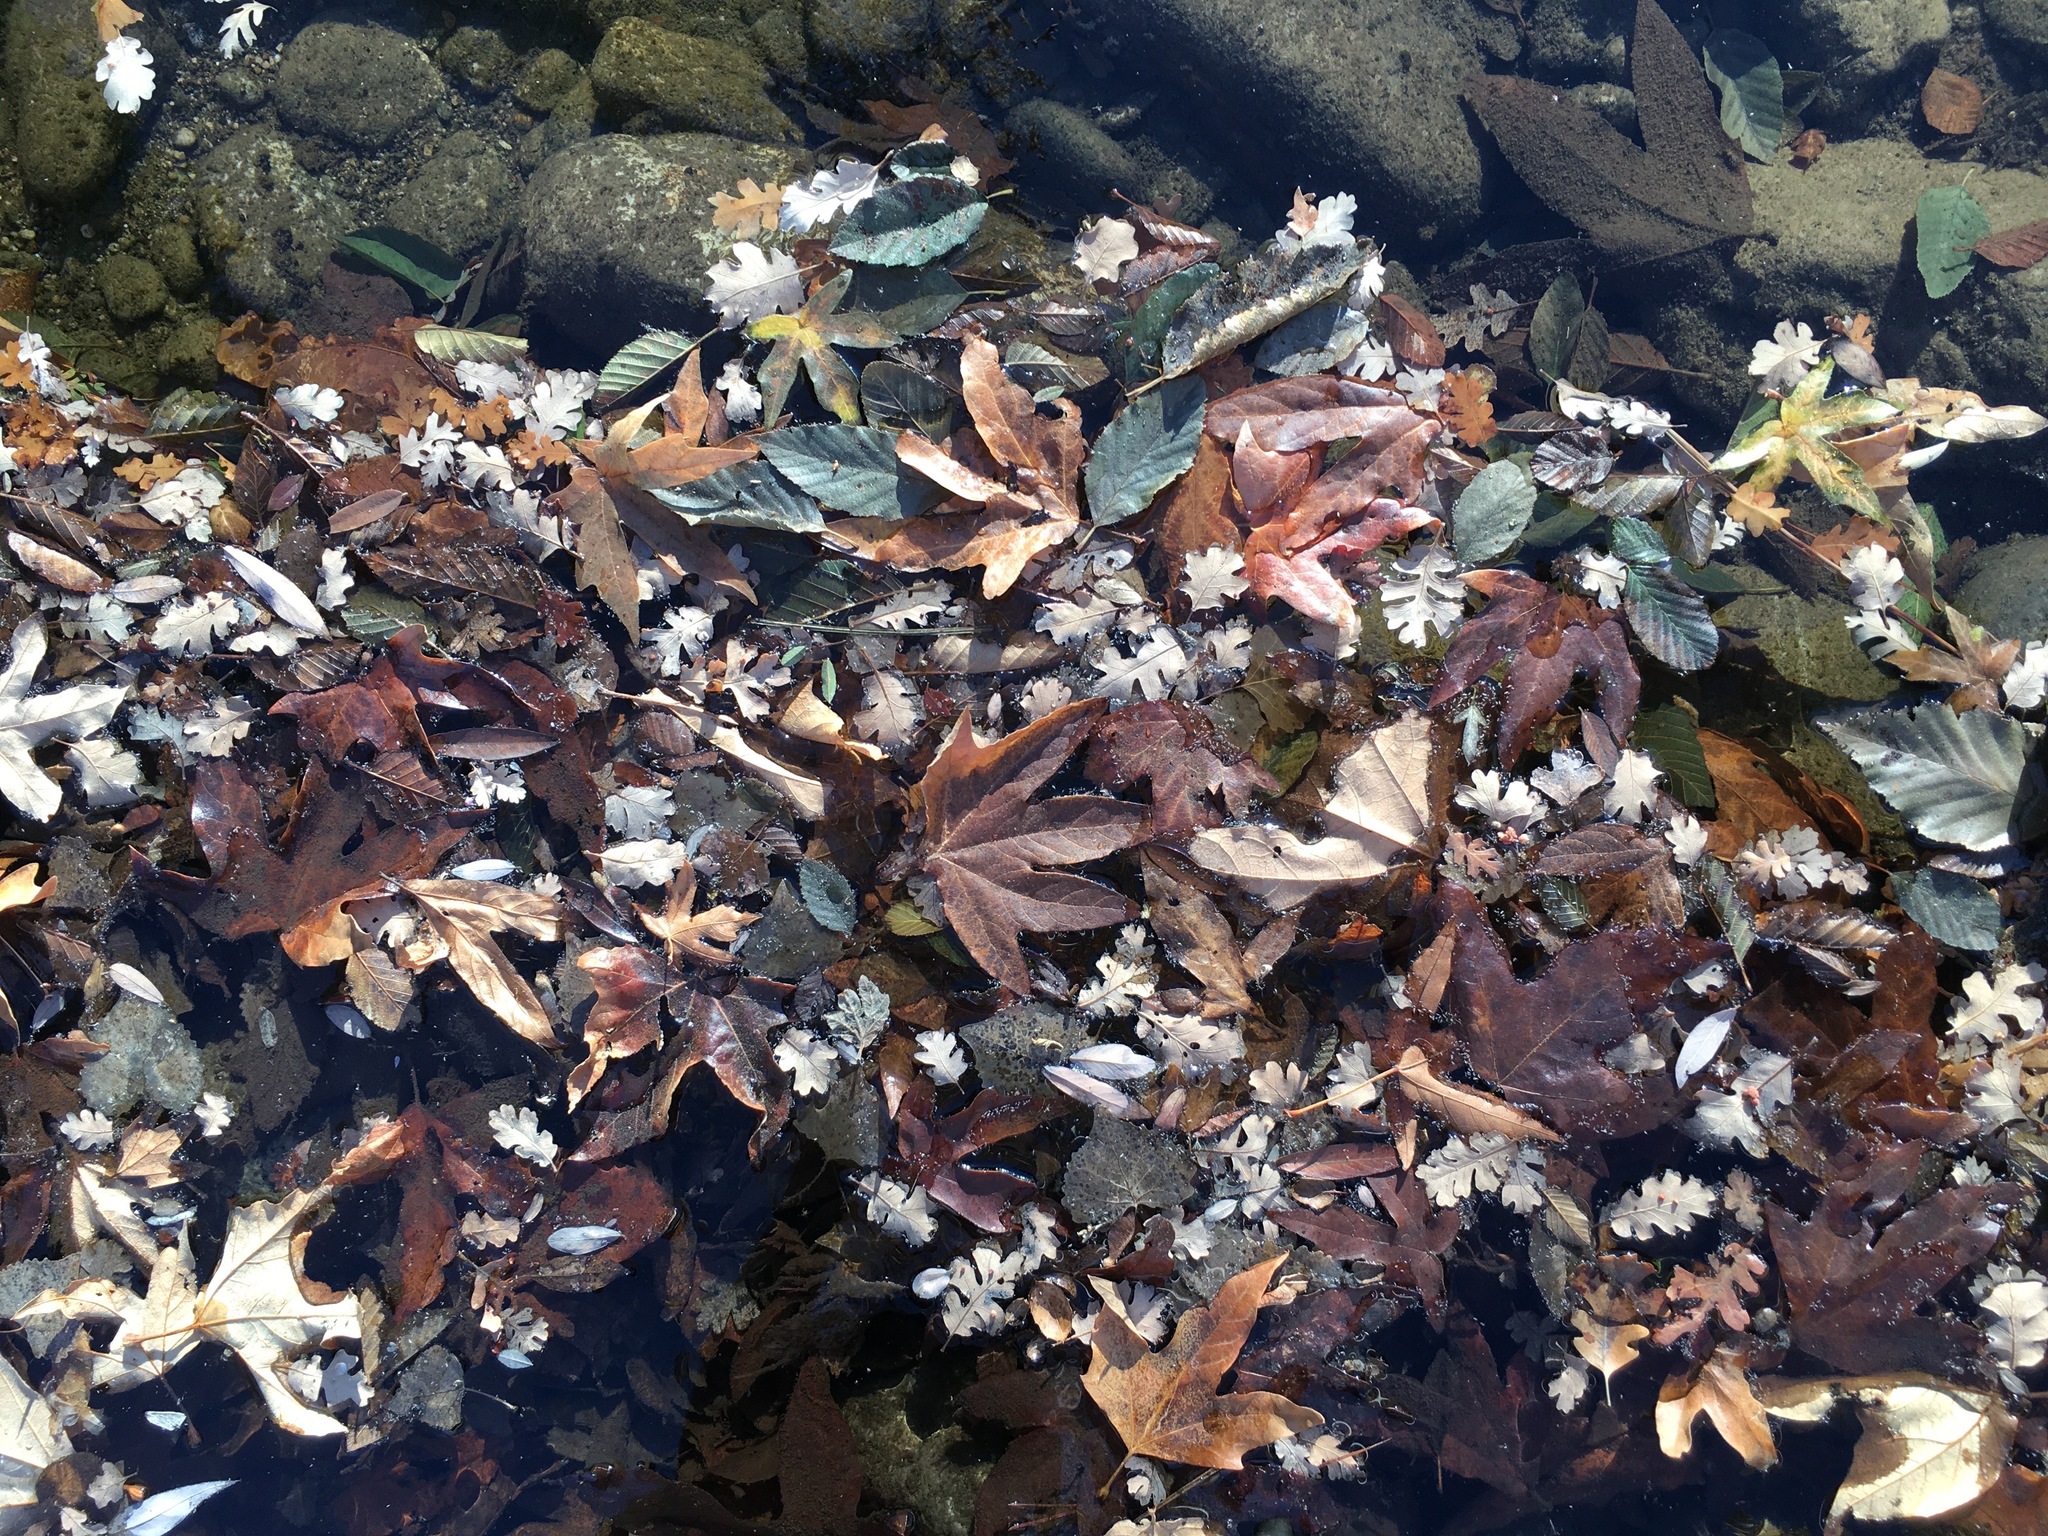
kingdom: Plantae
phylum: Tracheophyta
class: Magnoliopsida
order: Fagales
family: Fagaceae
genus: Quercus
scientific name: Quercus lobata
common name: Valley oak
